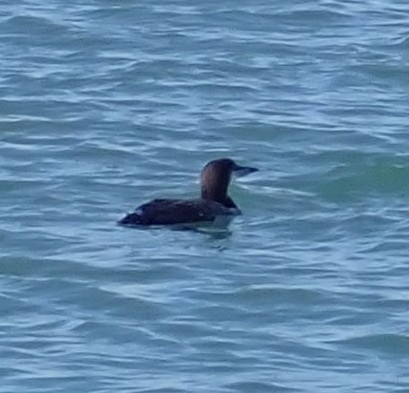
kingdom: Animalia
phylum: Chordata
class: Aves
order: Gaviiformes
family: Gaviidae
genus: Gavia
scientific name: Gavia immer
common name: Common loon
